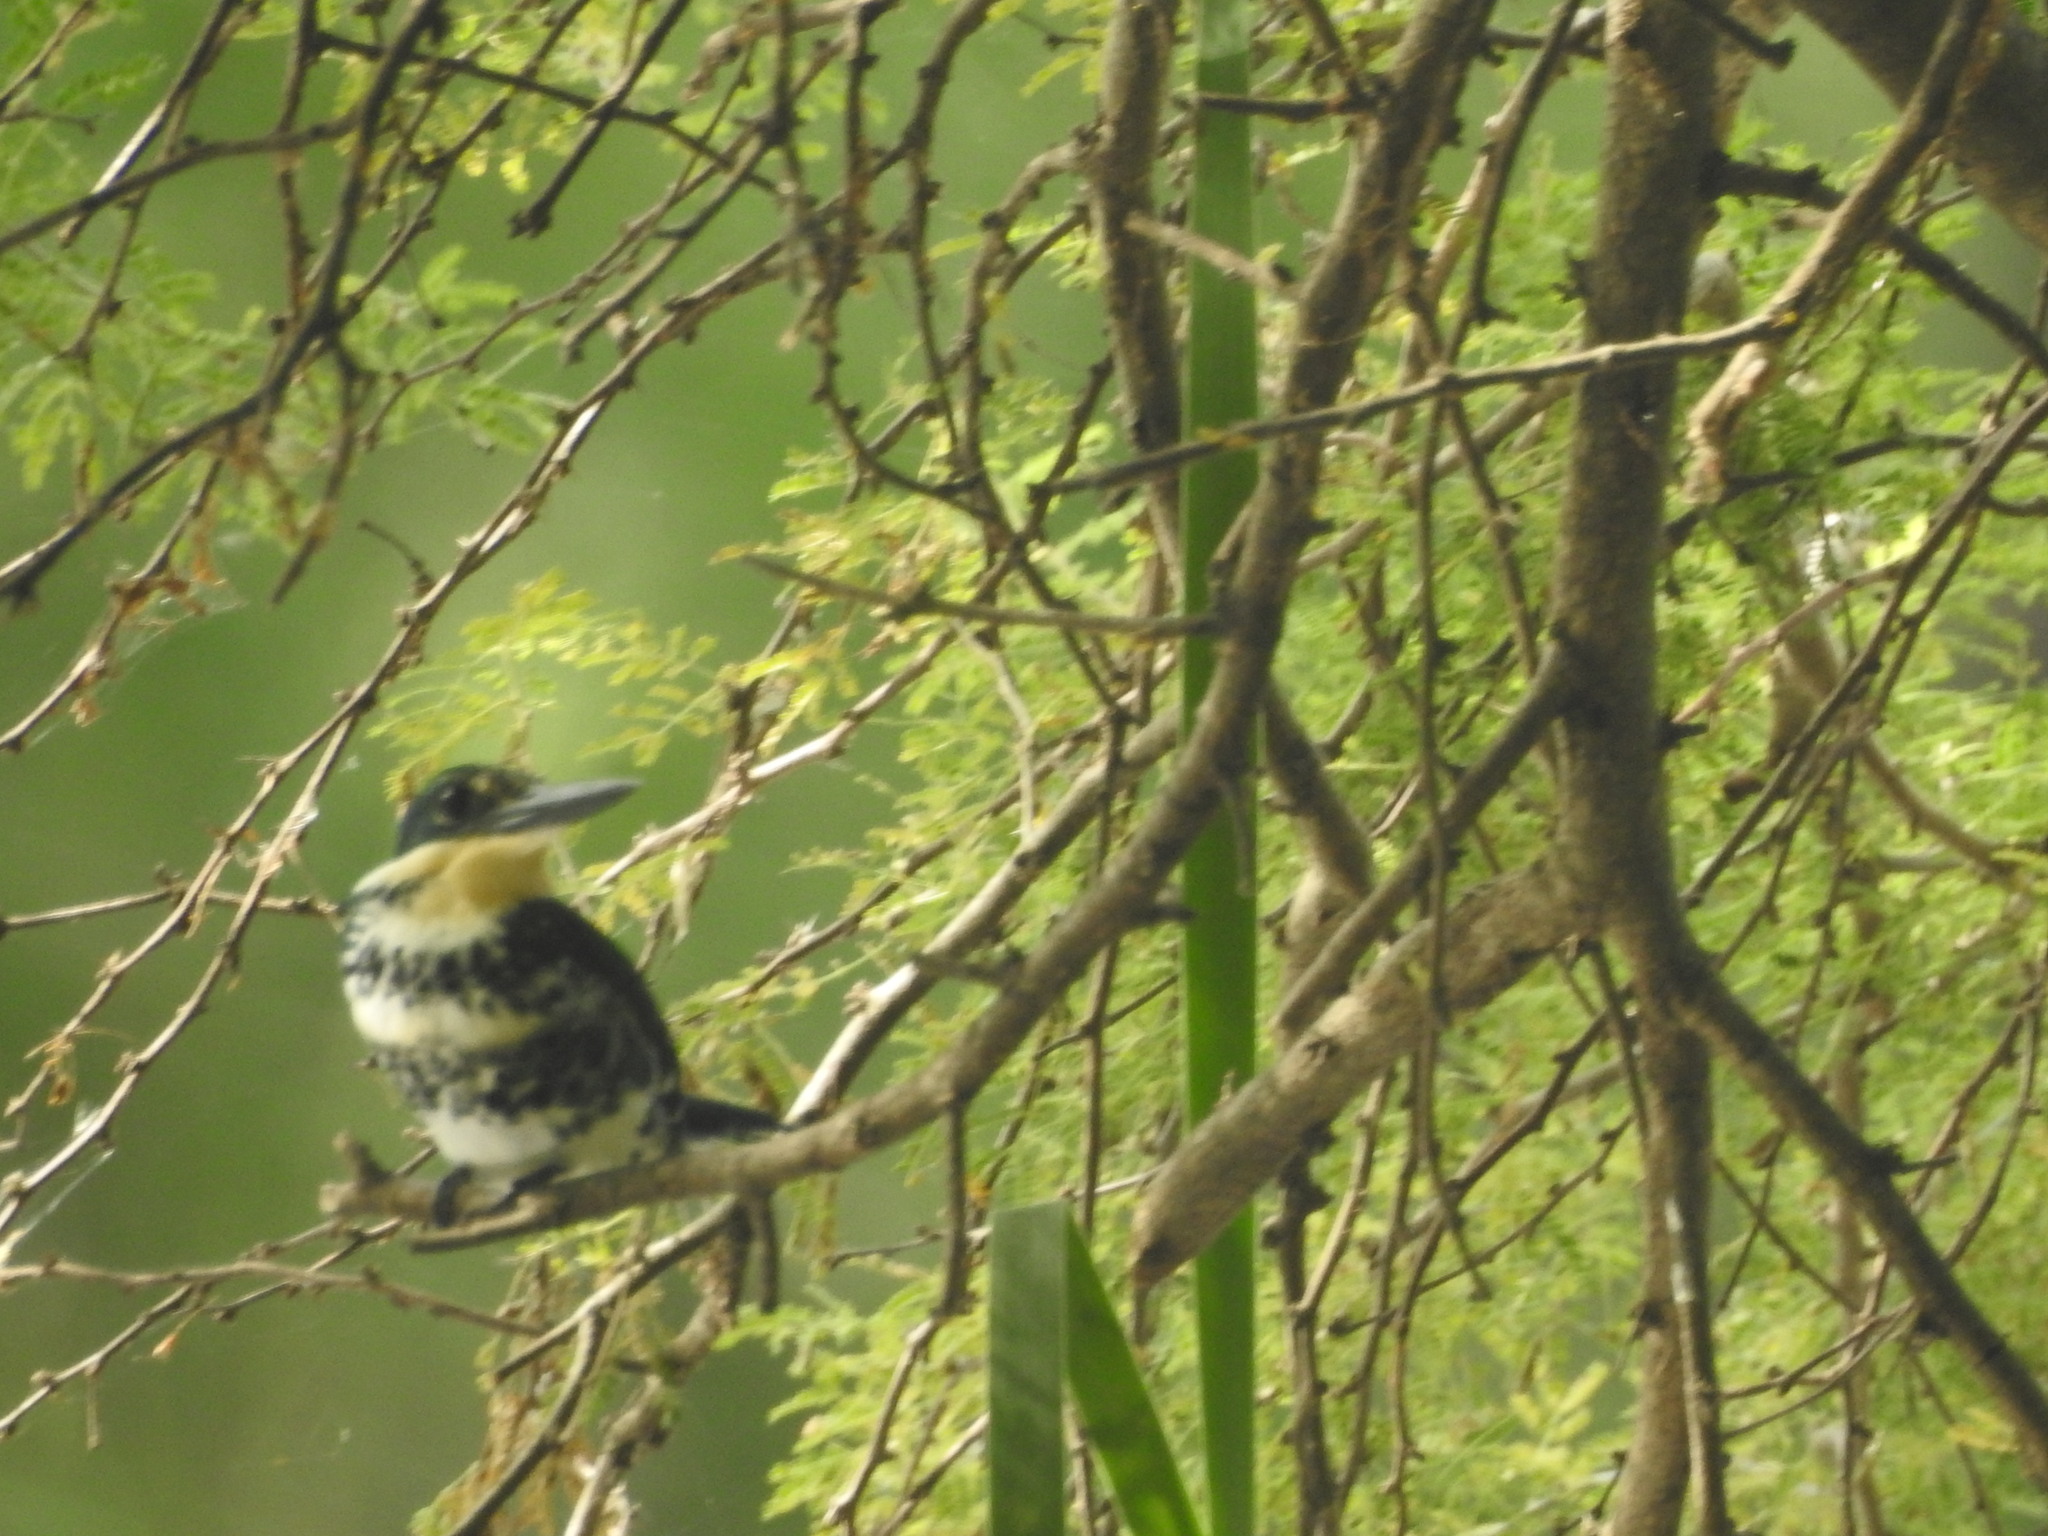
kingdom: Animalia
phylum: Chordata
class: Aves
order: Coraciiformes
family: Alcedinidae
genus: Chloroceryle
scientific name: Chloroceryle americana
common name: Green kingfisher
